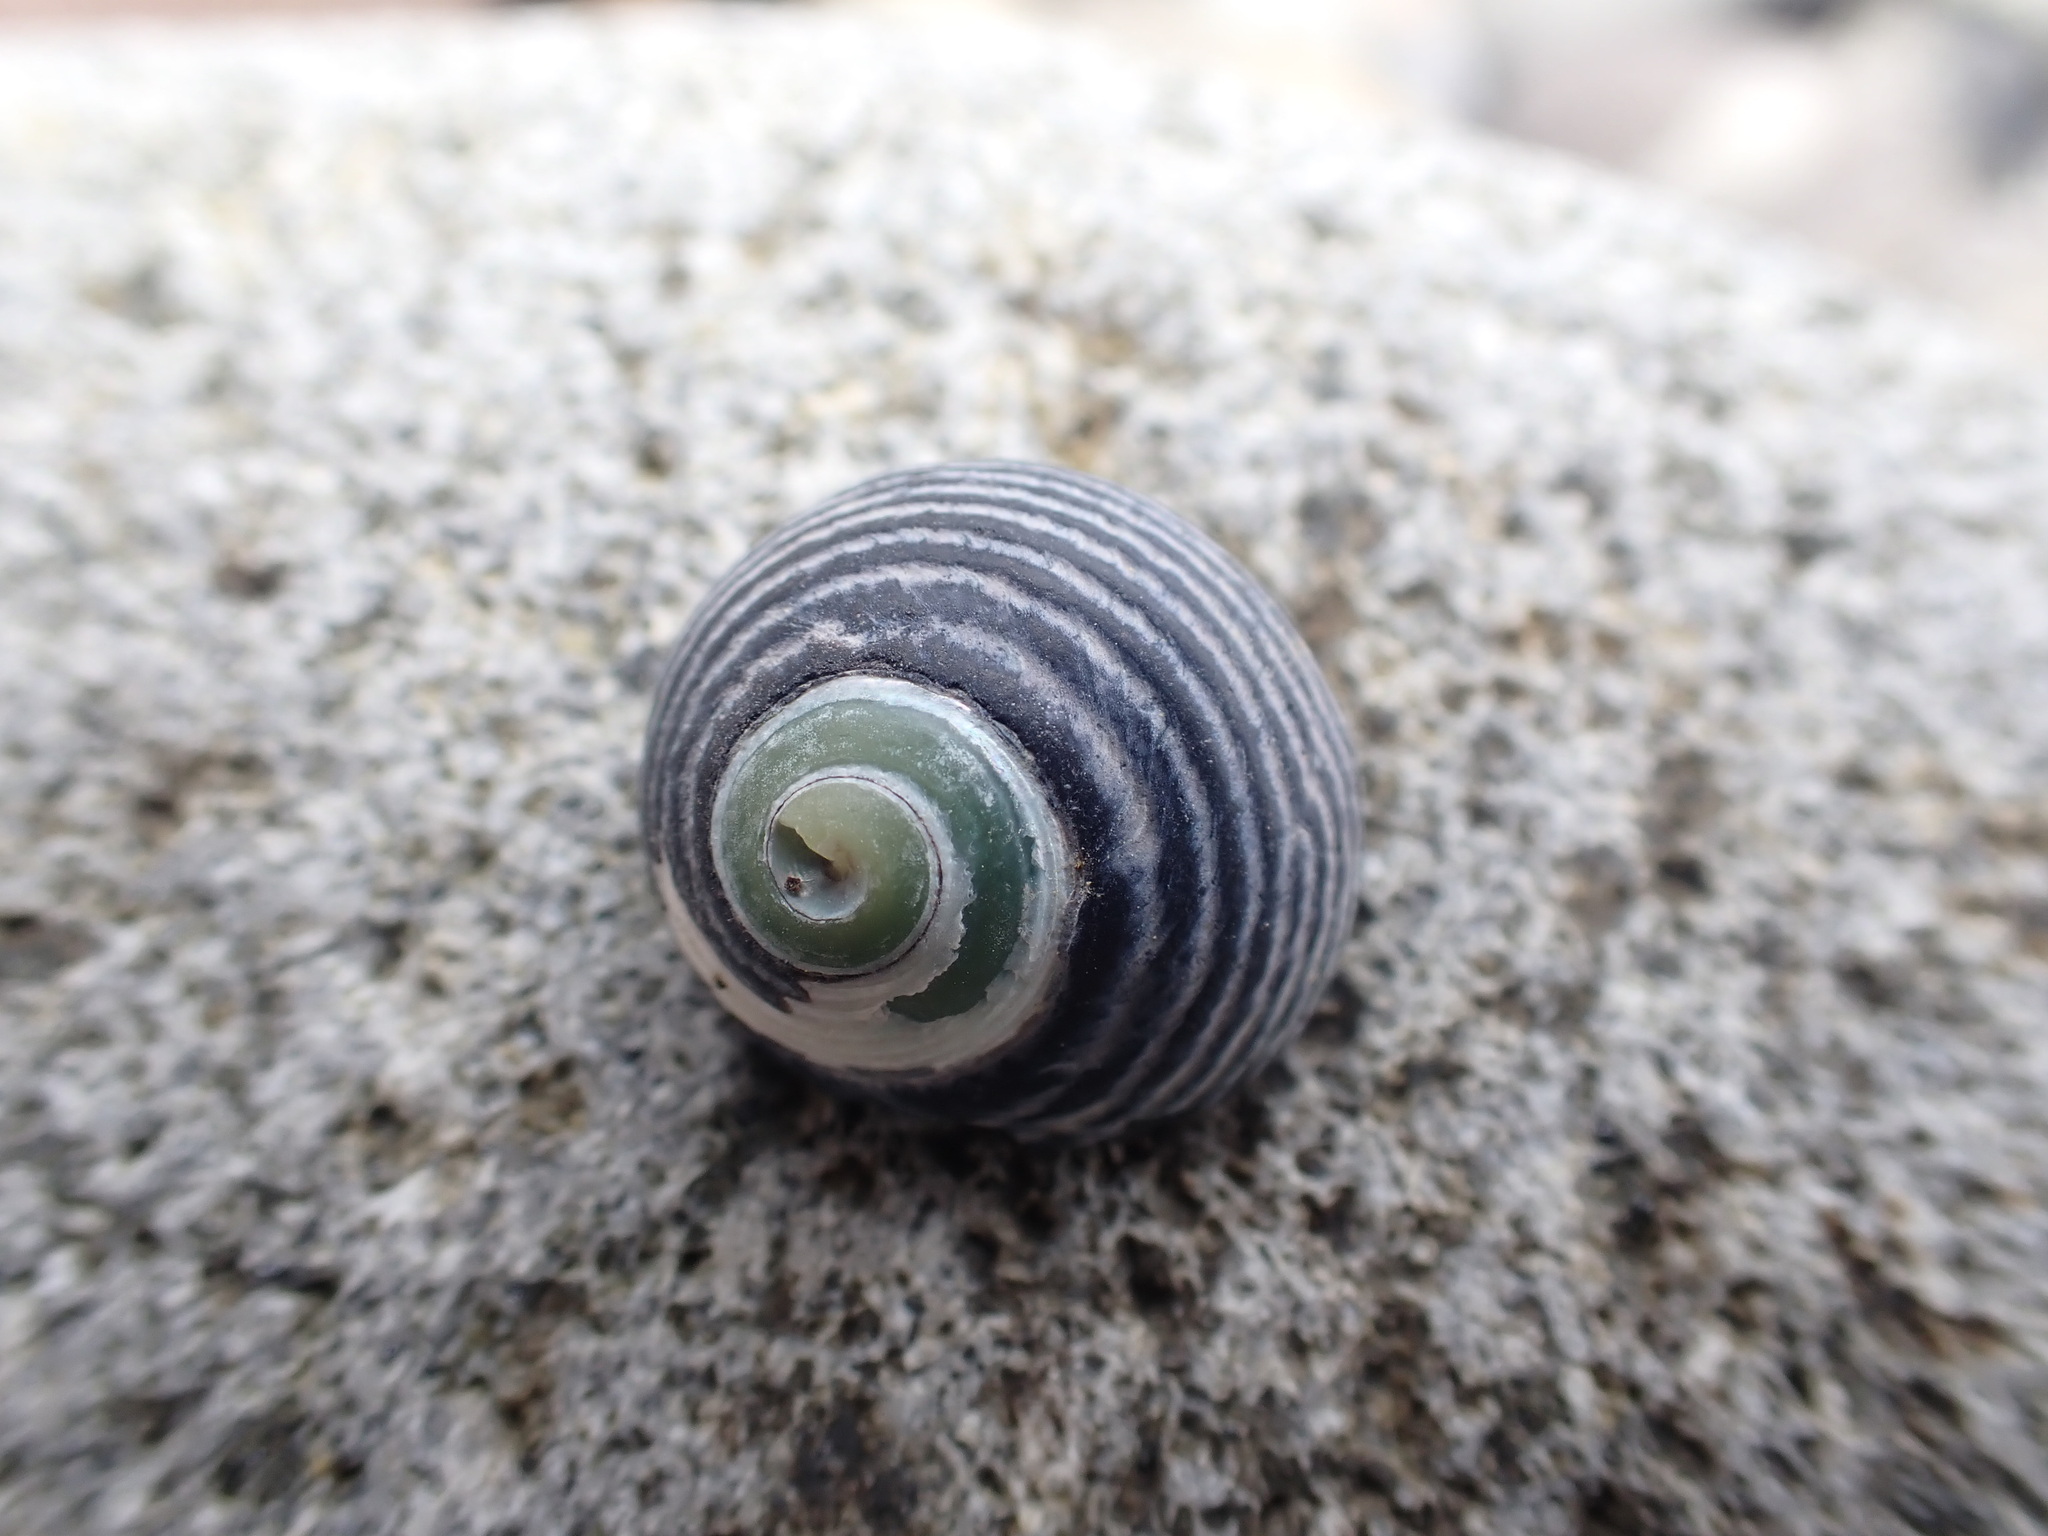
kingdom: Animalia
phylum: Mollusca
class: Gastropoda
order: Trochida
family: Trochidae
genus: Diloma
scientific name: Diloma zelandicum
